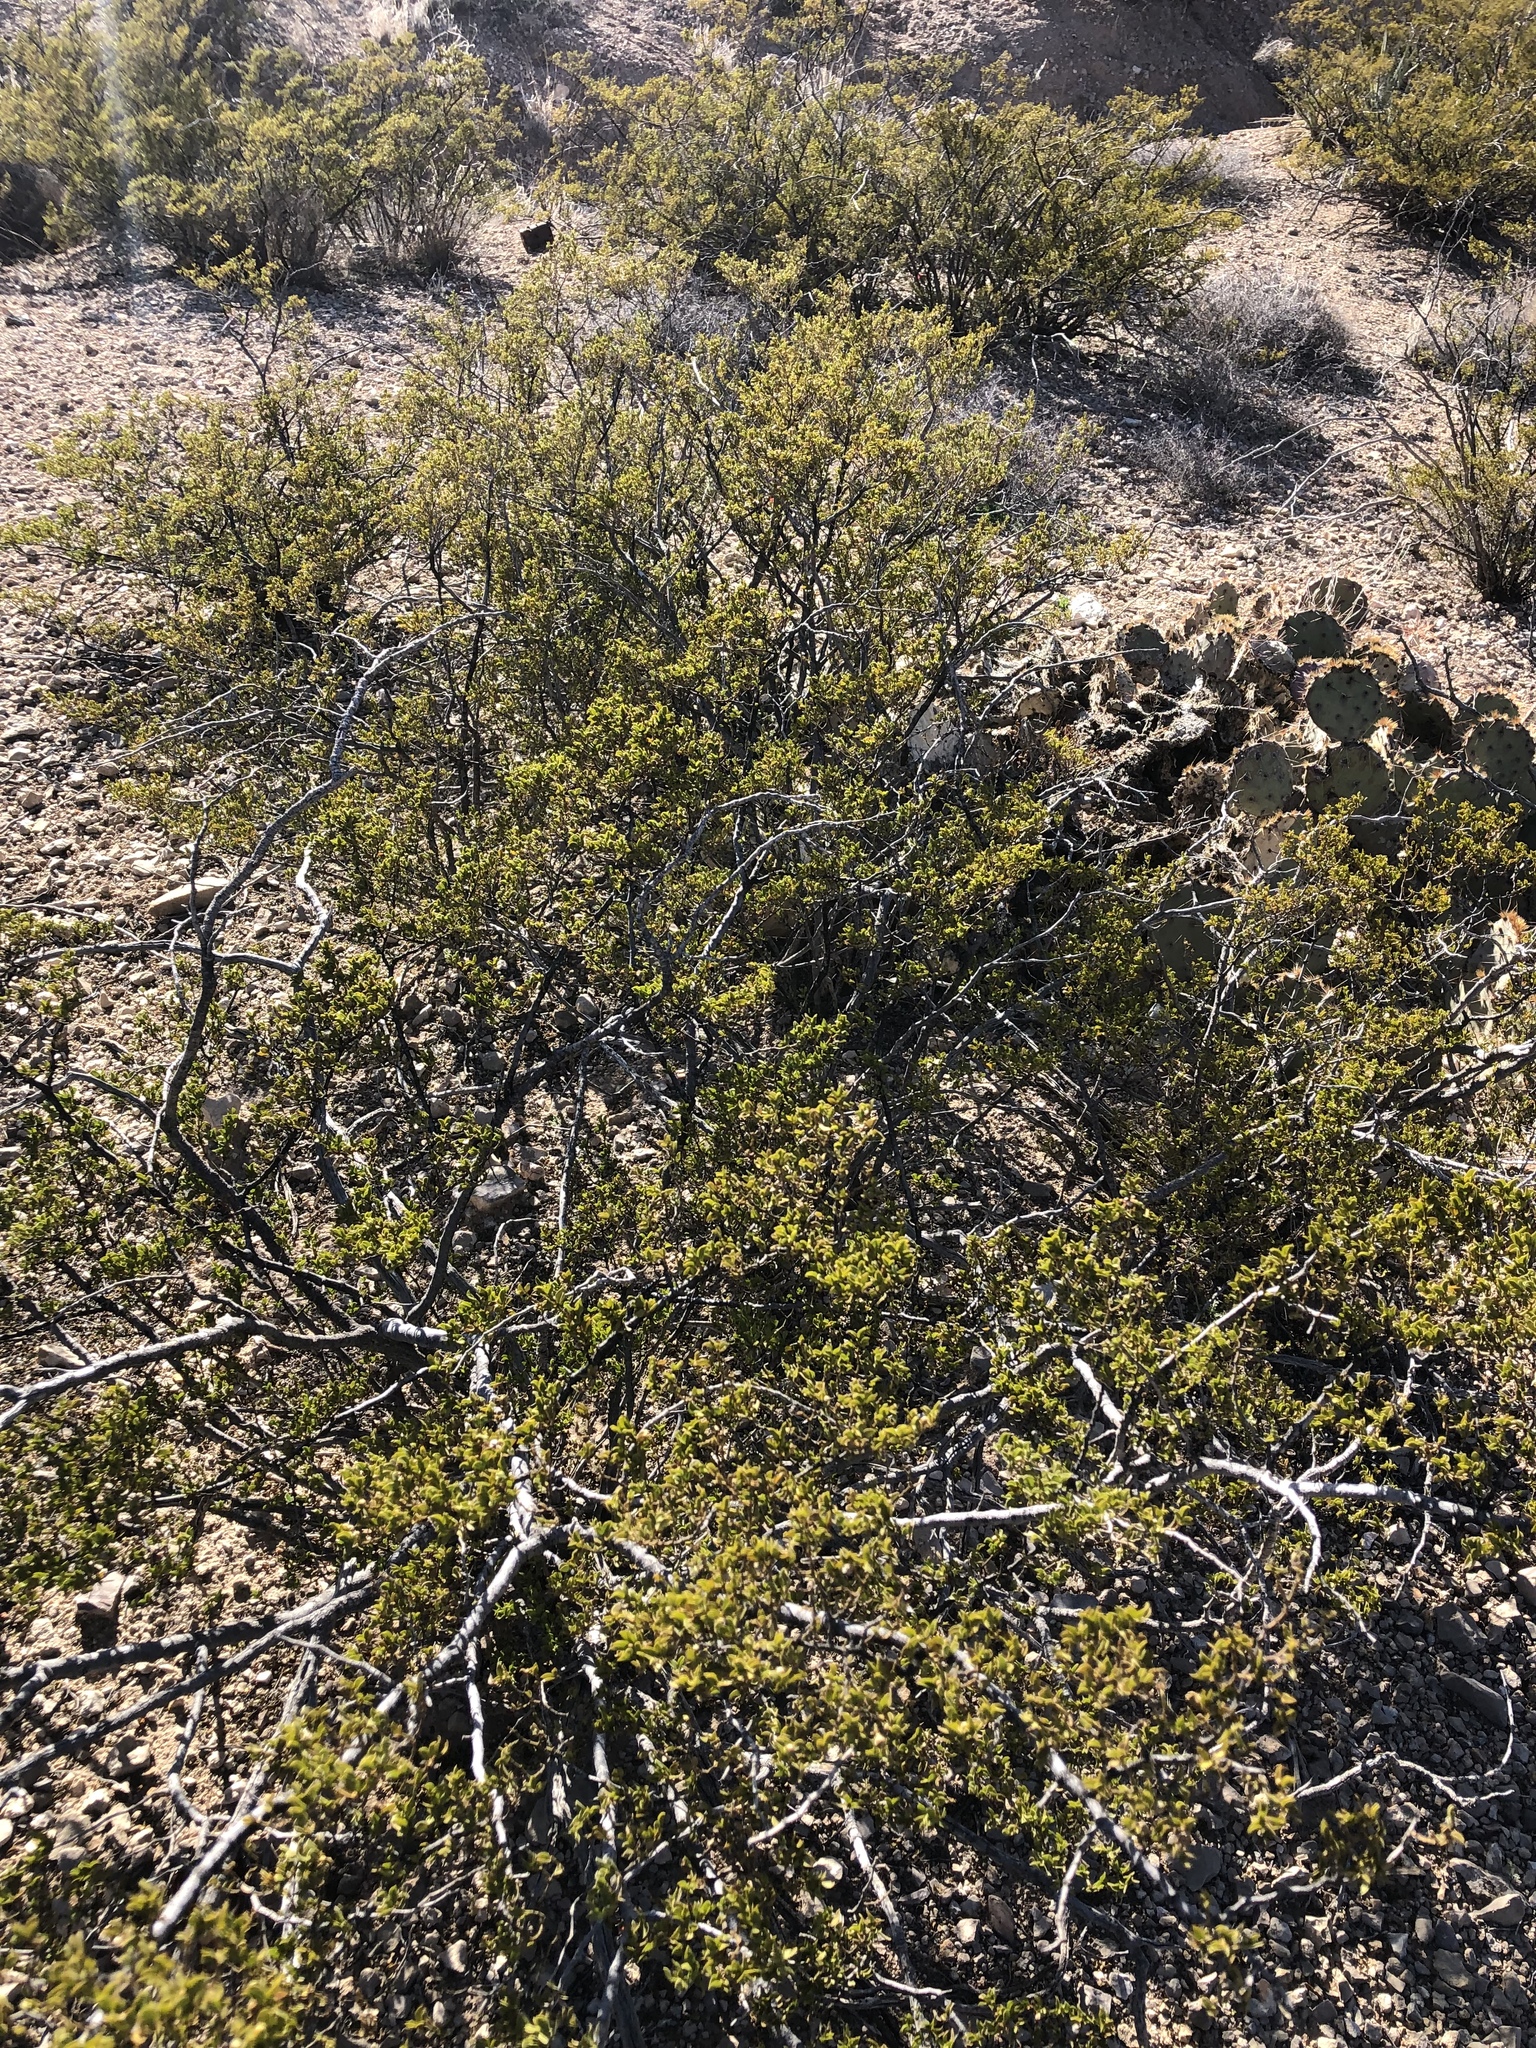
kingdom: Plantae
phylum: Tracheophyta
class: Magnoliopsida
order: Zygophyllales
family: Zygophyllaceae
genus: Larrea
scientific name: Larrea tridentata
